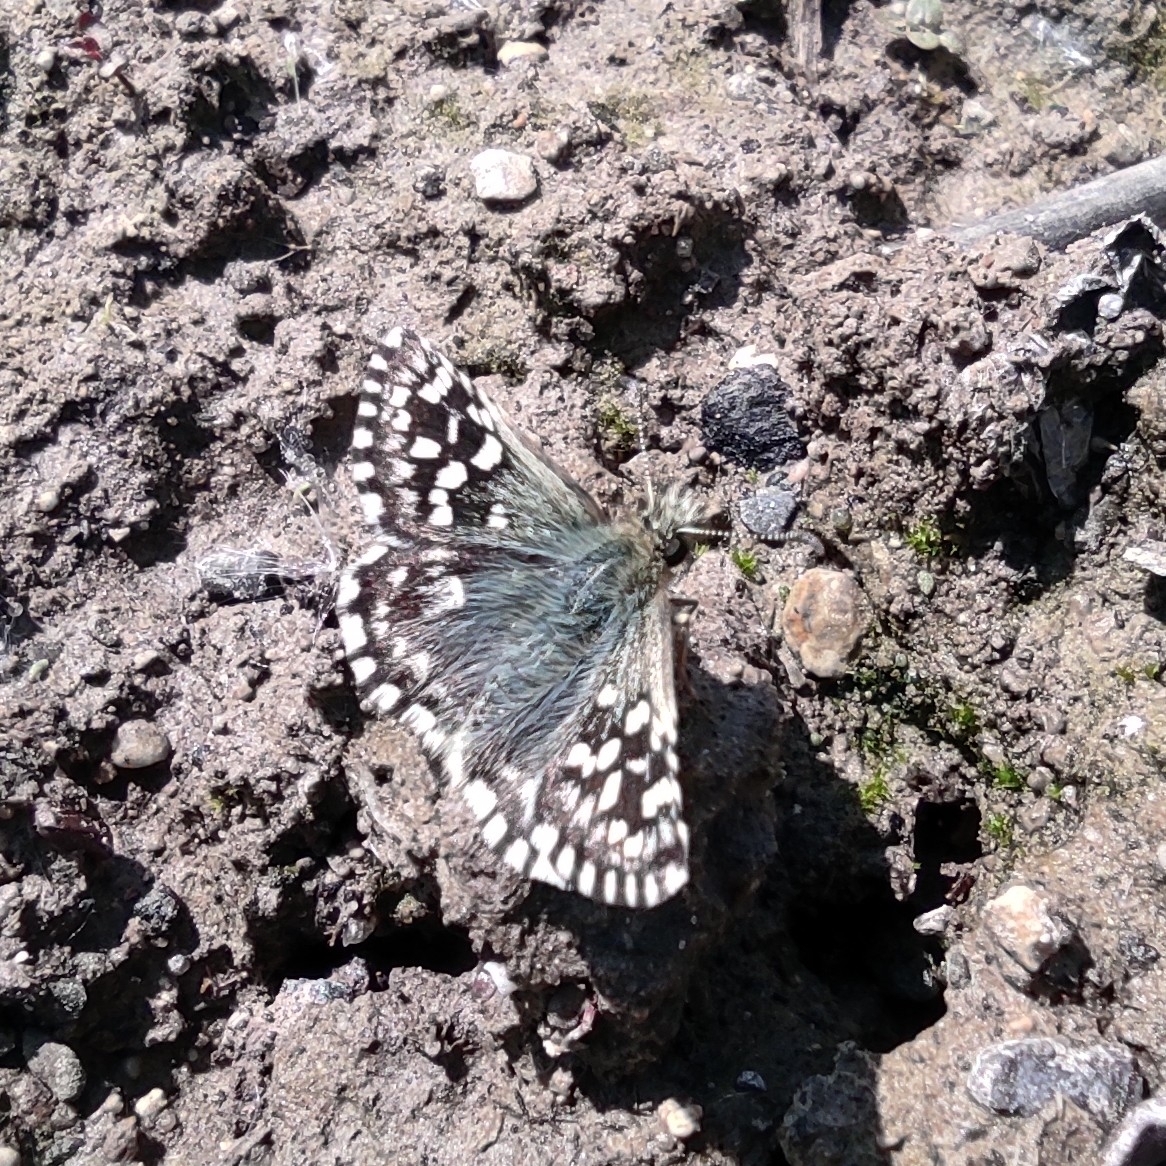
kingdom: Animalia
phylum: Arthropoda
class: Insecta
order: Lepidoptera
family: Hesperiidae
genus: Pyrgus
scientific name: Pyrgus malvae
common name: Grizzled skipper
